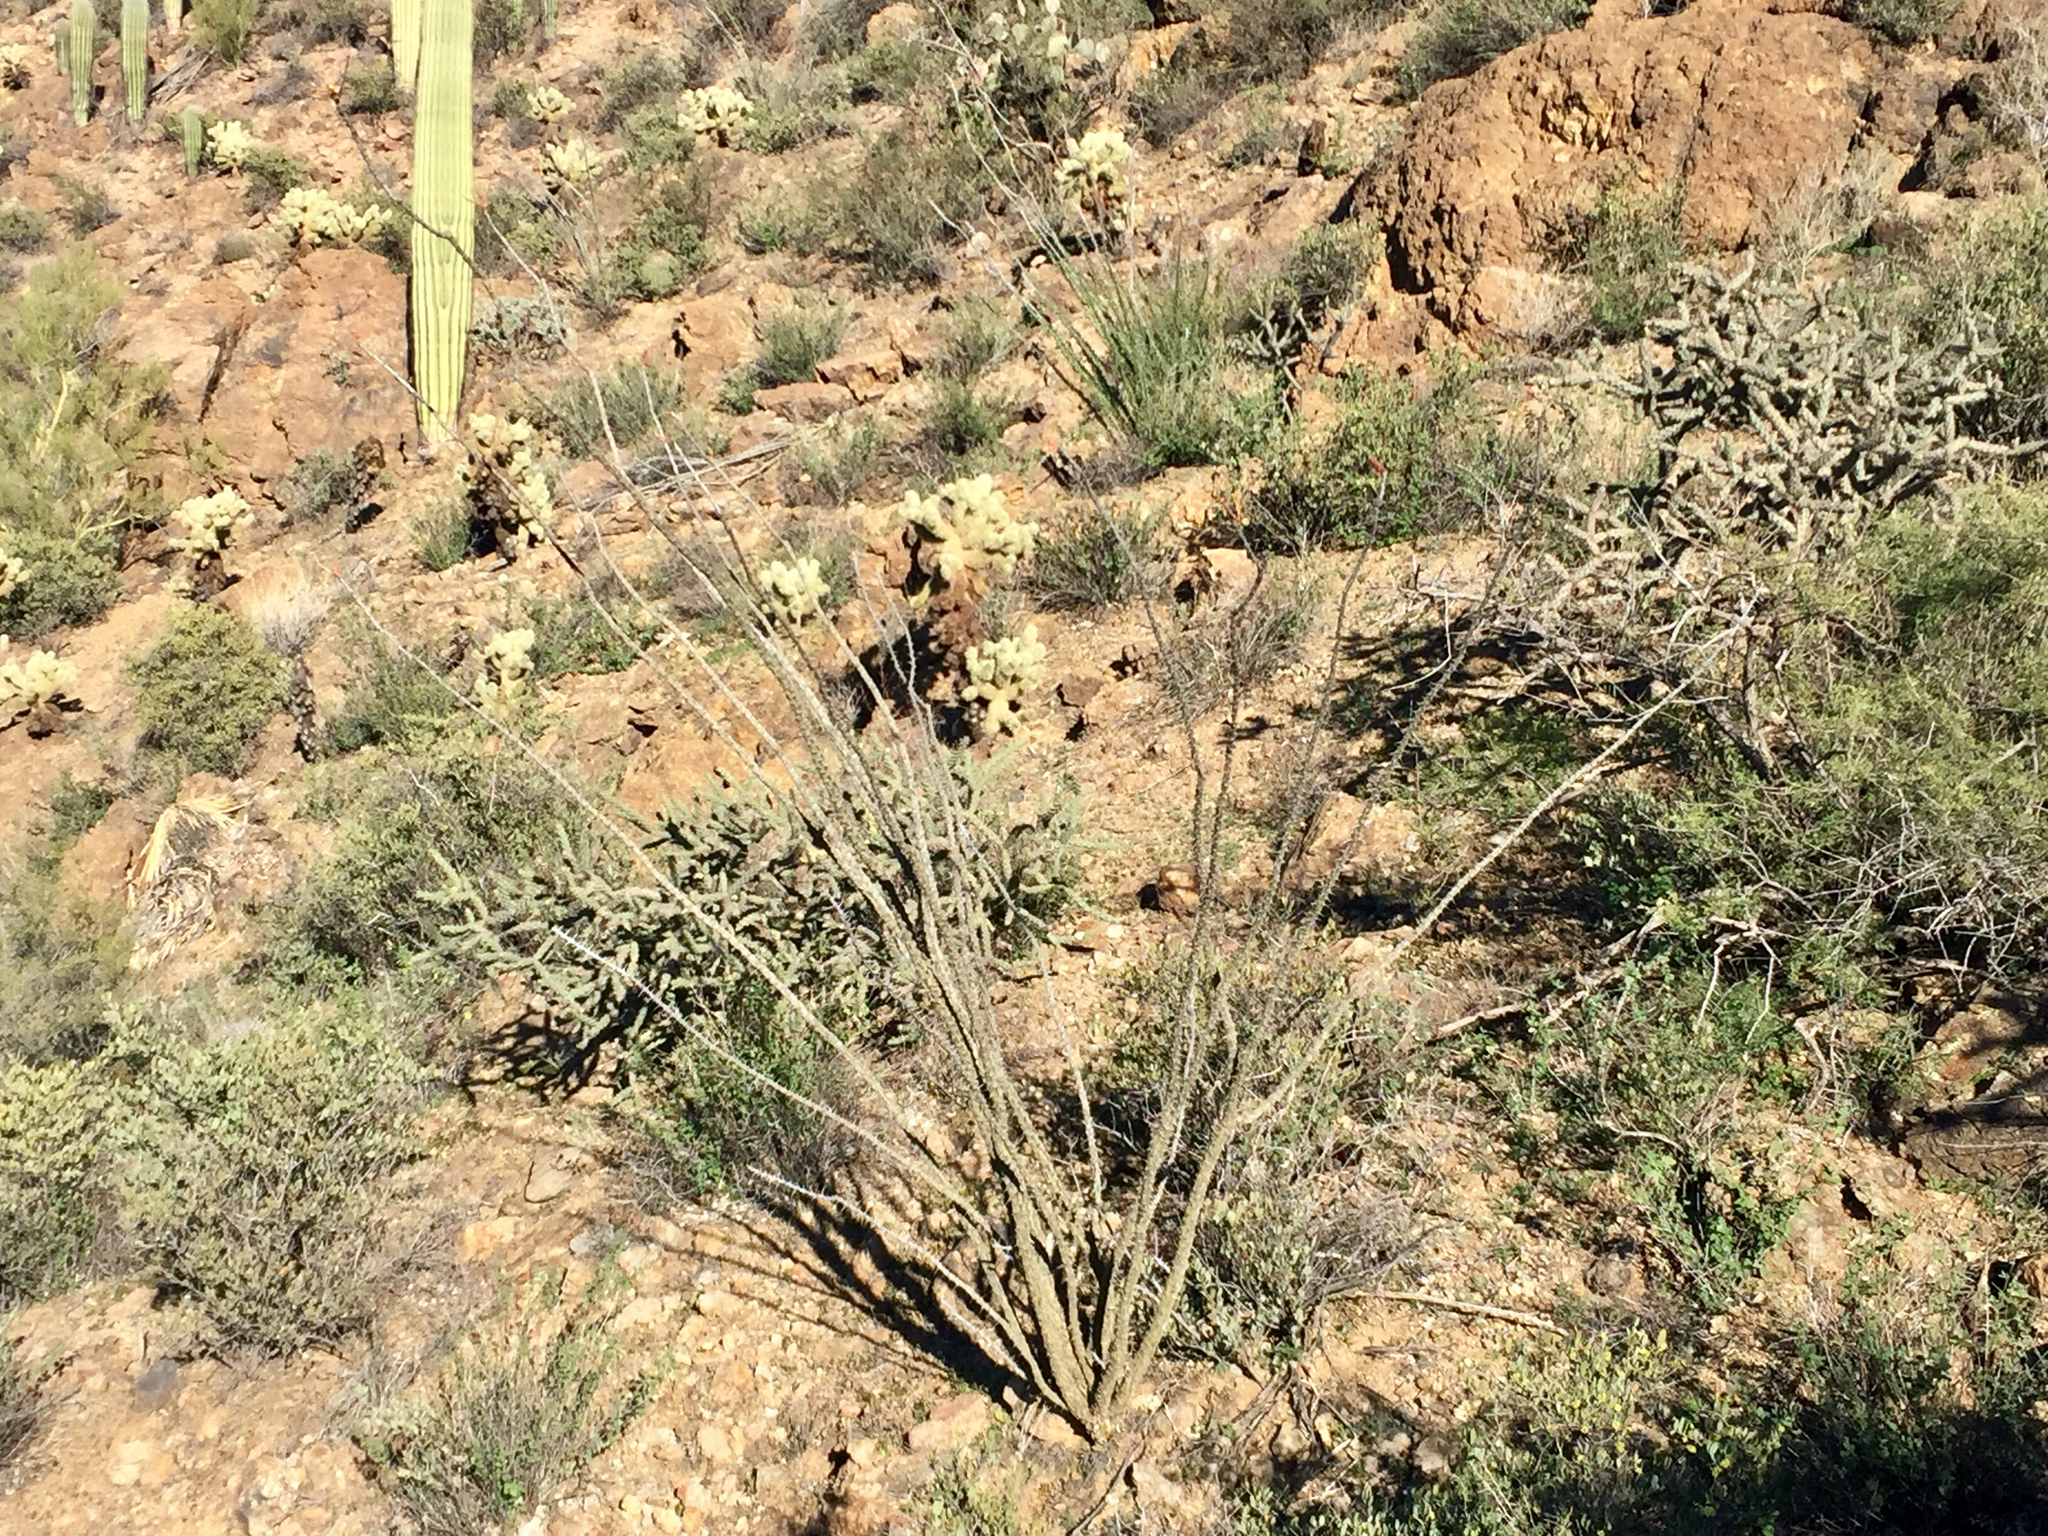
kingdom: Plantae
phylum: Tracheophyta
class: Magnoliopsida
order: Ericales
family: Fouquieriaceae
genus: Fouquieria
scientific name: Fouquieria splendens
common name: Vine-cactus
